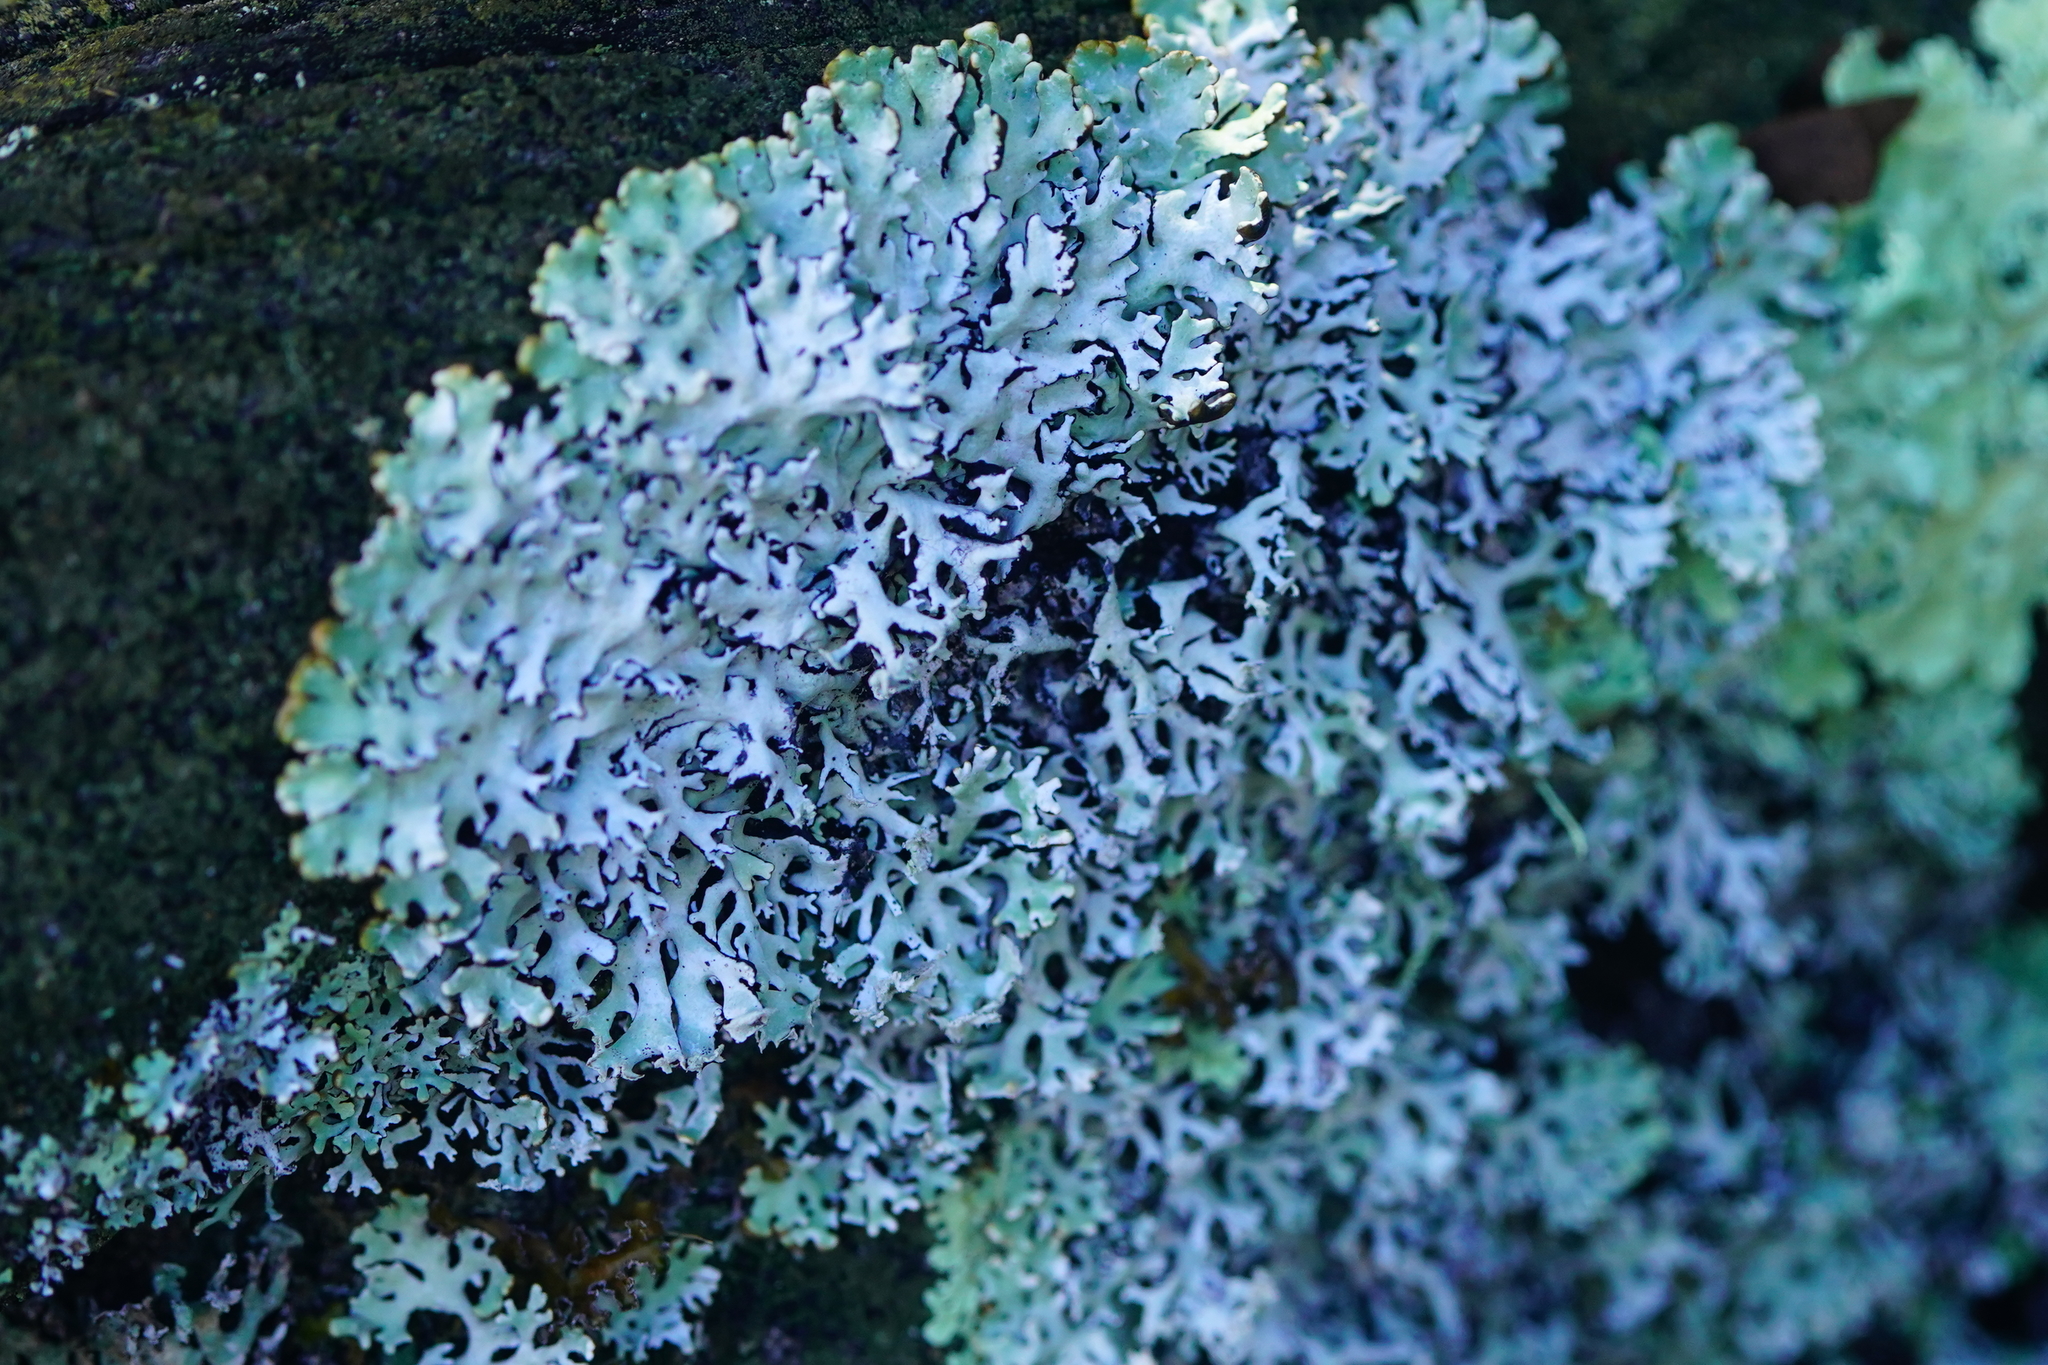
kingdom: Fungi
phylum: Ascomycota
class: Lecanoromycetes
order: Lecanorales
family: Parmeliaceae
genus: Hypogymnia
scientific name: Hypogymnia physodes
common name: Dark crottle
